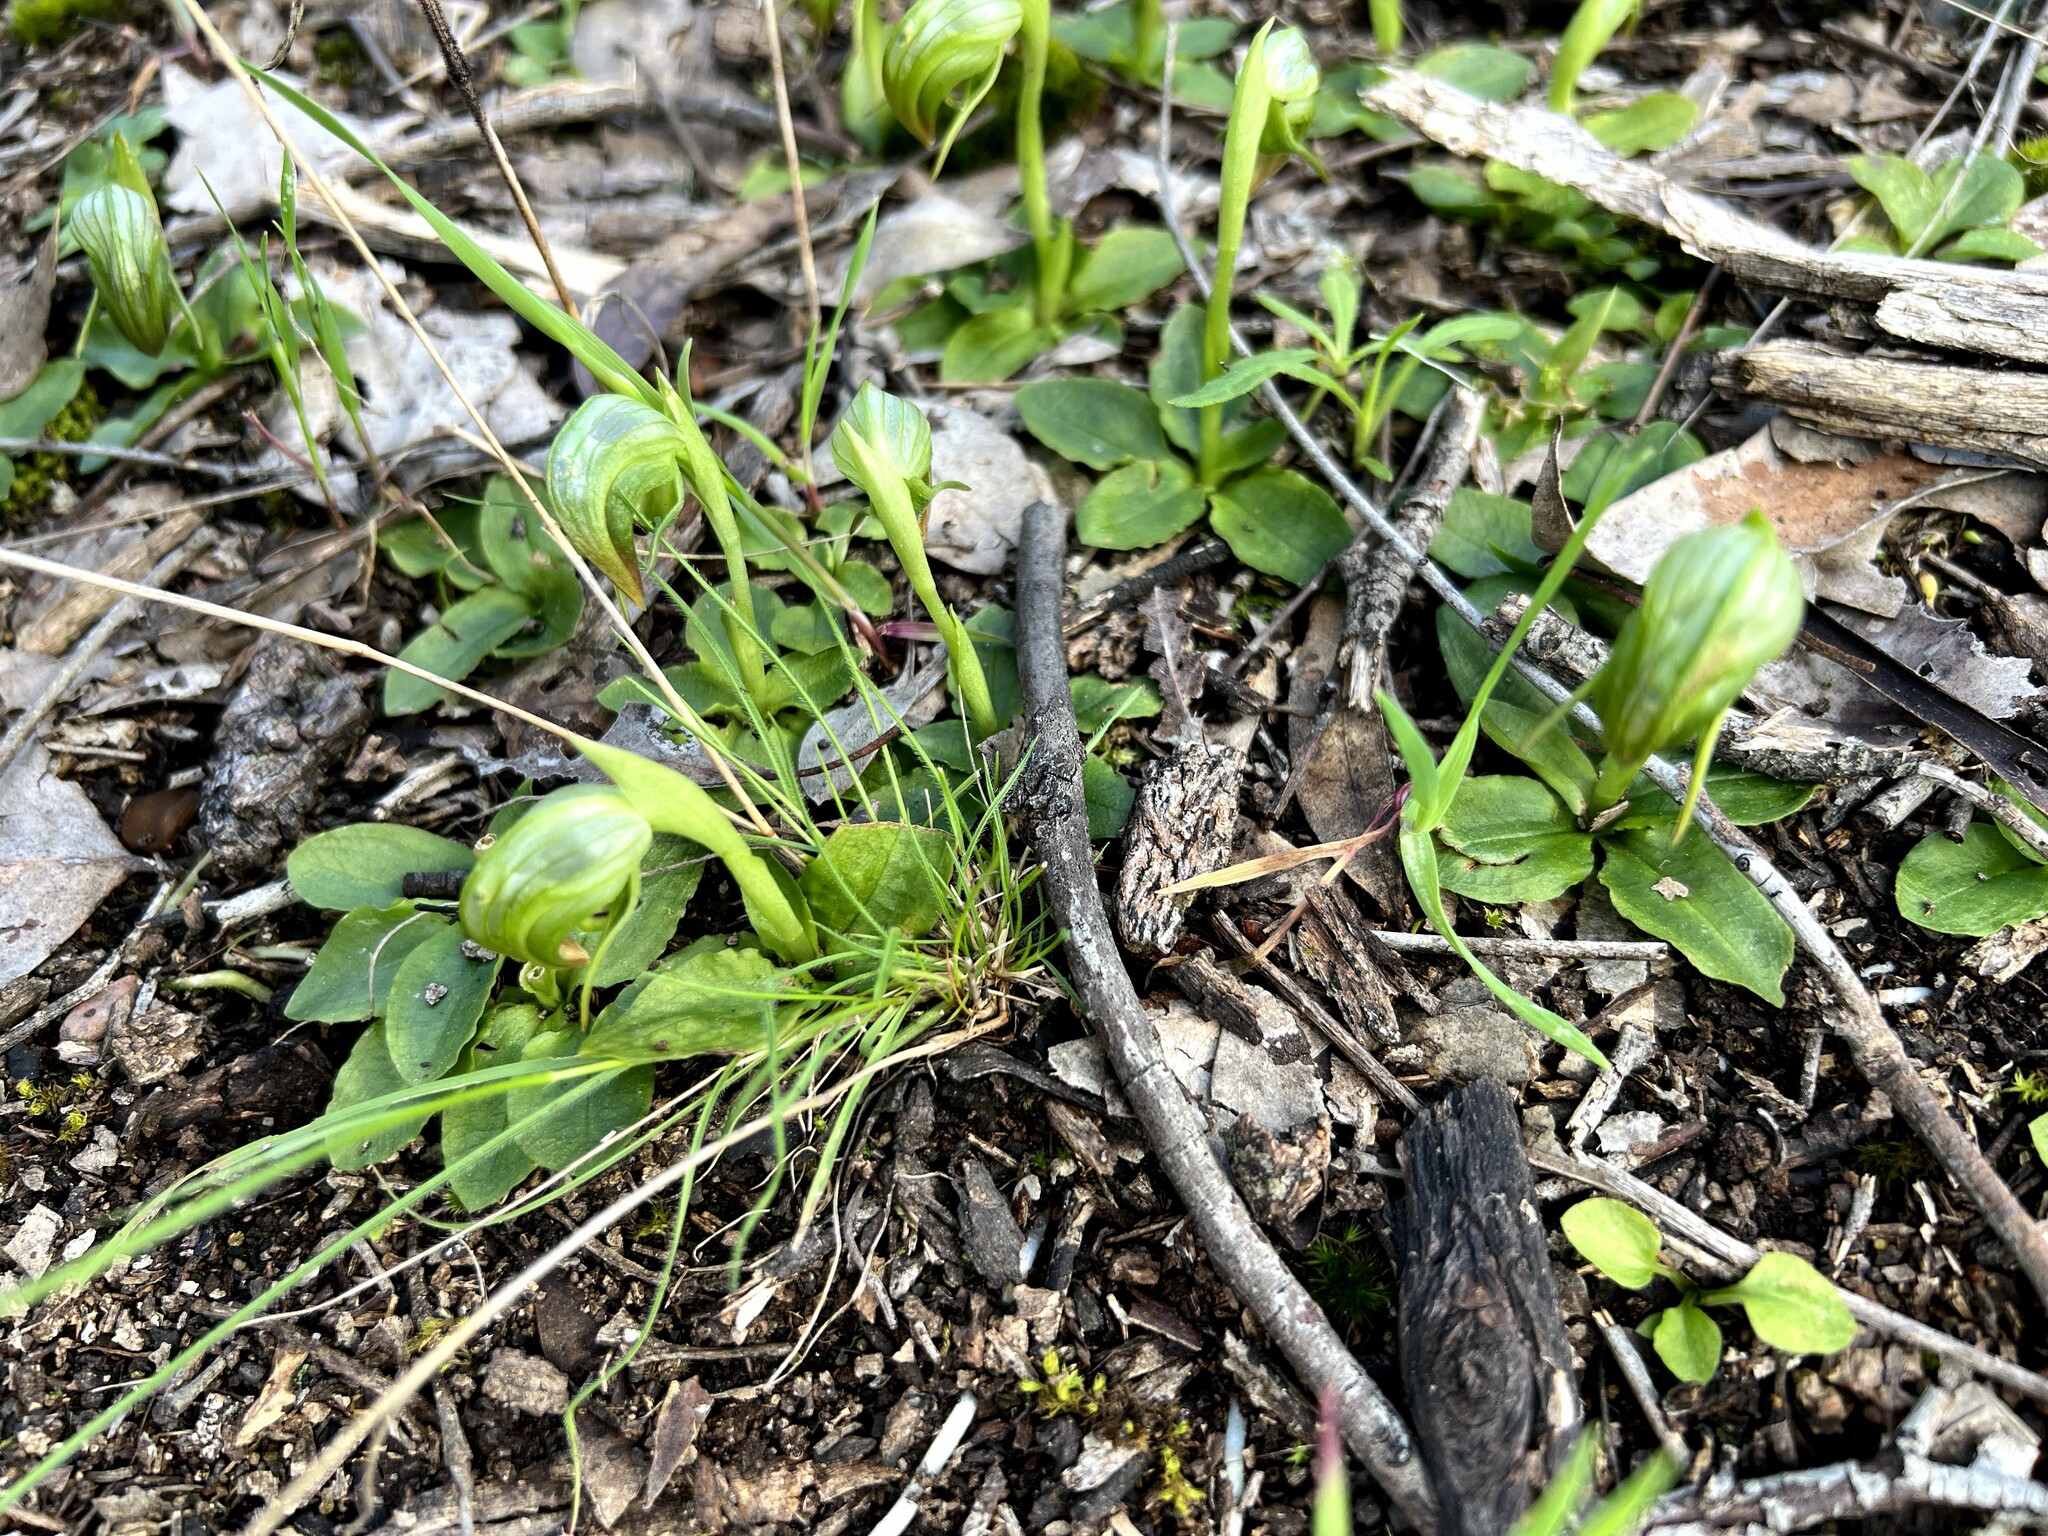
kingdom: Plantae
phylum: Tracheophyta
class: Liliopsida
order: Asparagales
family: Orchidaceae
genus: Pterostylis
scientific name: Pterostylis nutans
